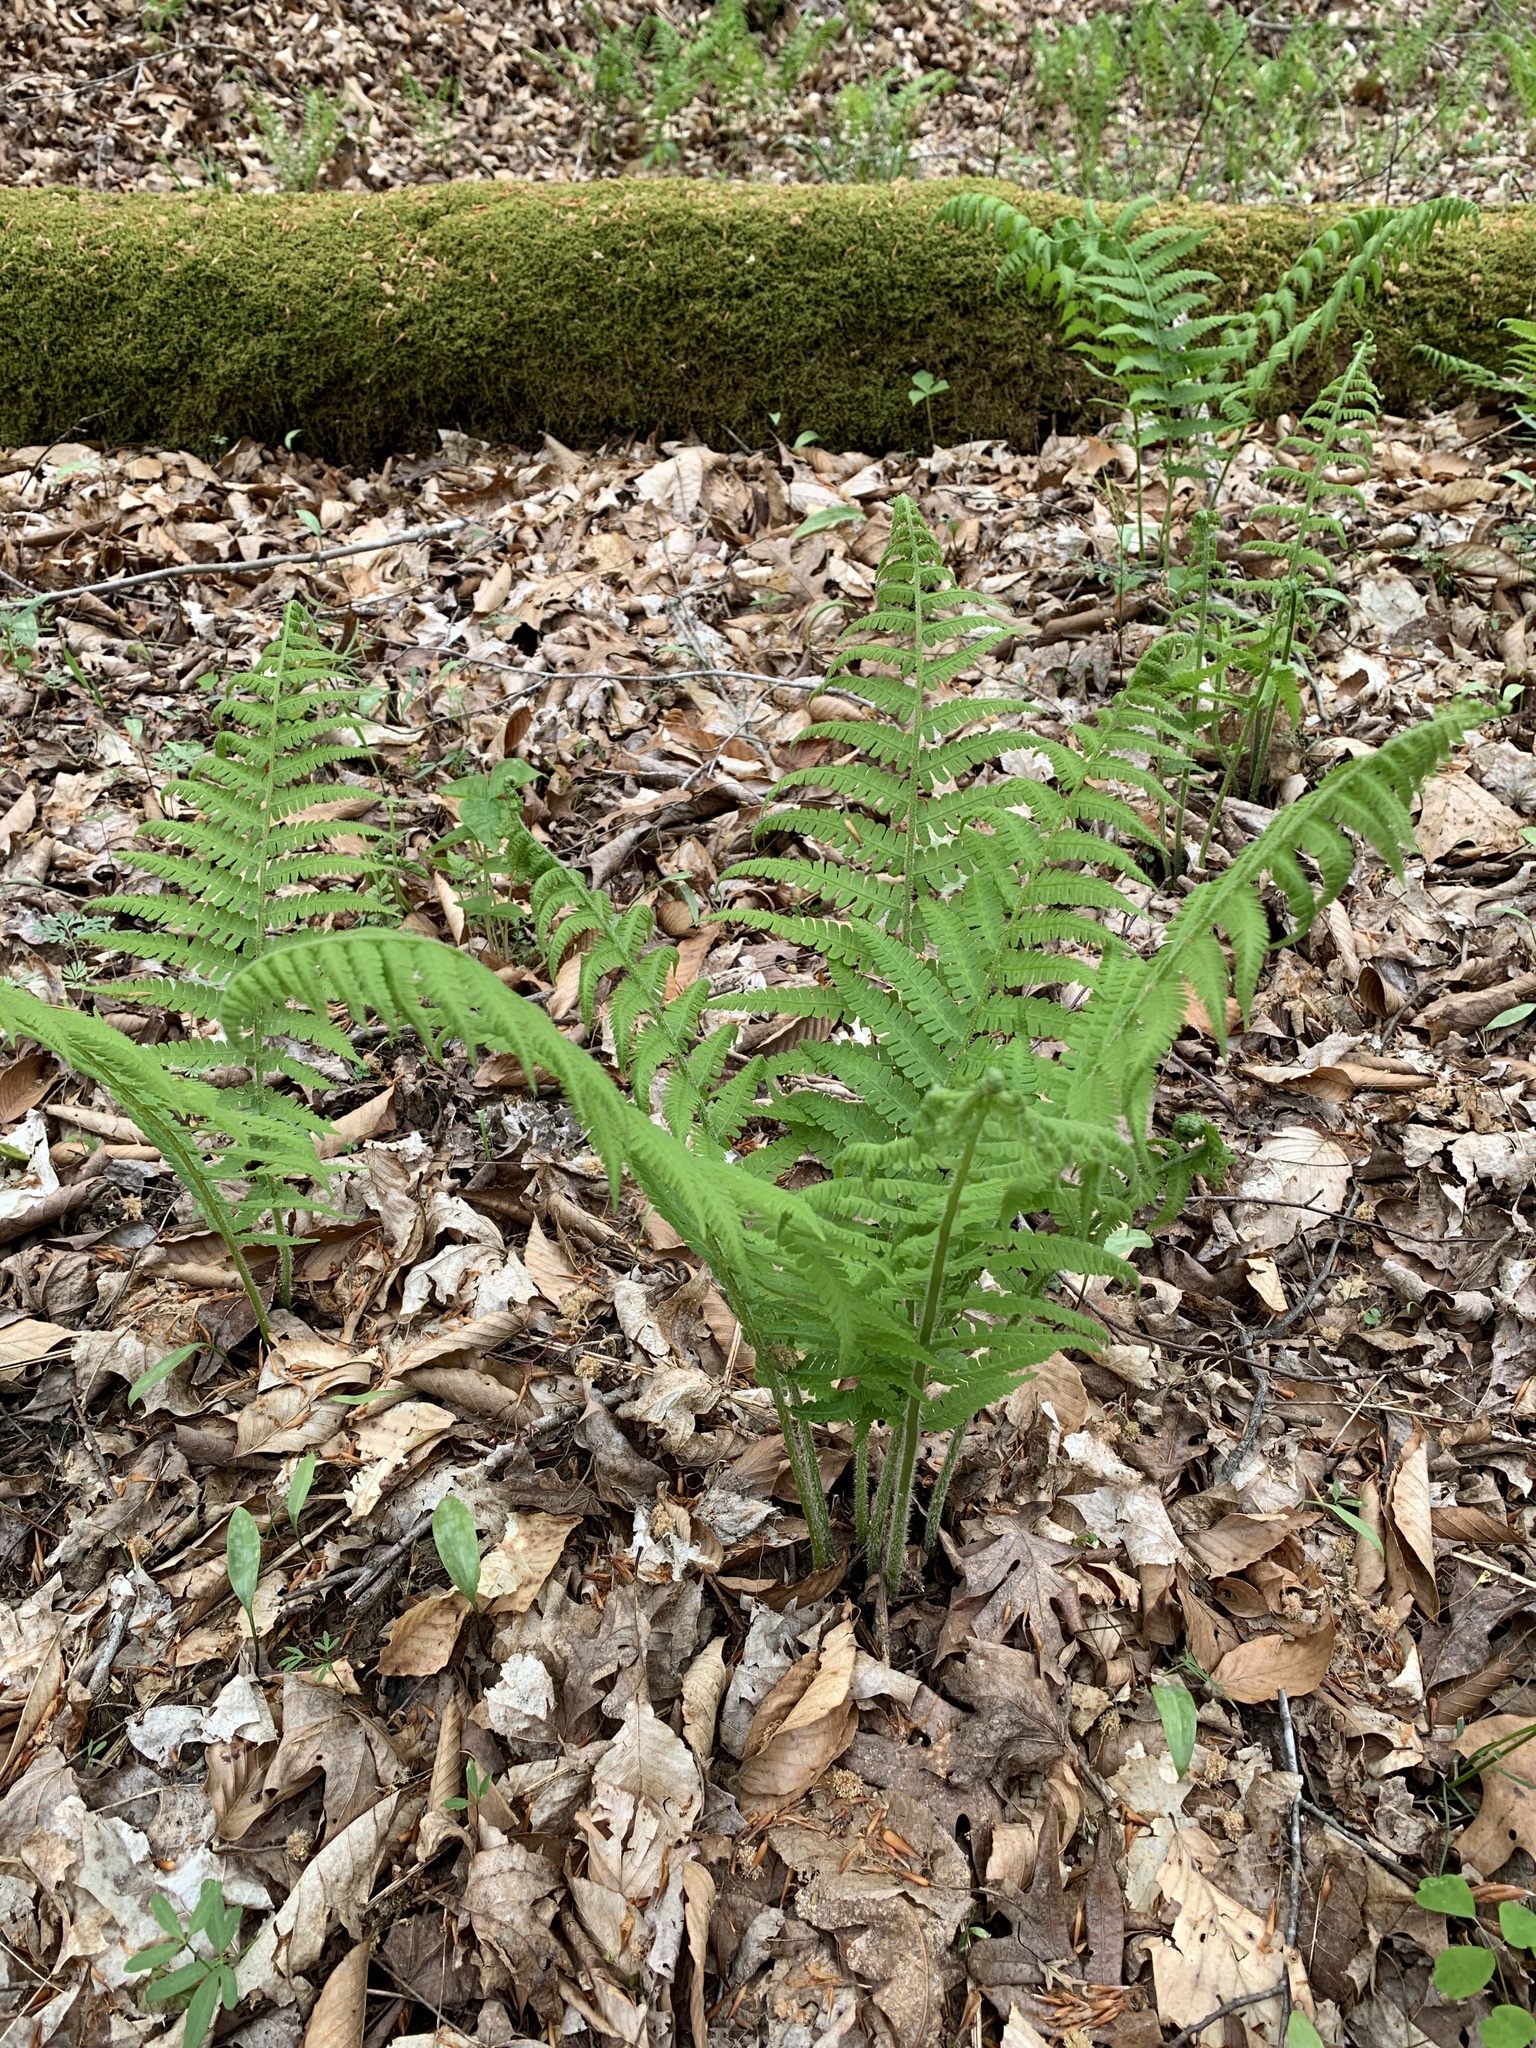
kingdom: Plantae
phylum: Tracheophyta
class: Polypodiopsida
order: Polypodiales
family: Athyriaceae
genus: Deparia
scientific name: Deparia acrostichoides
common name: Silver false spleenwort
